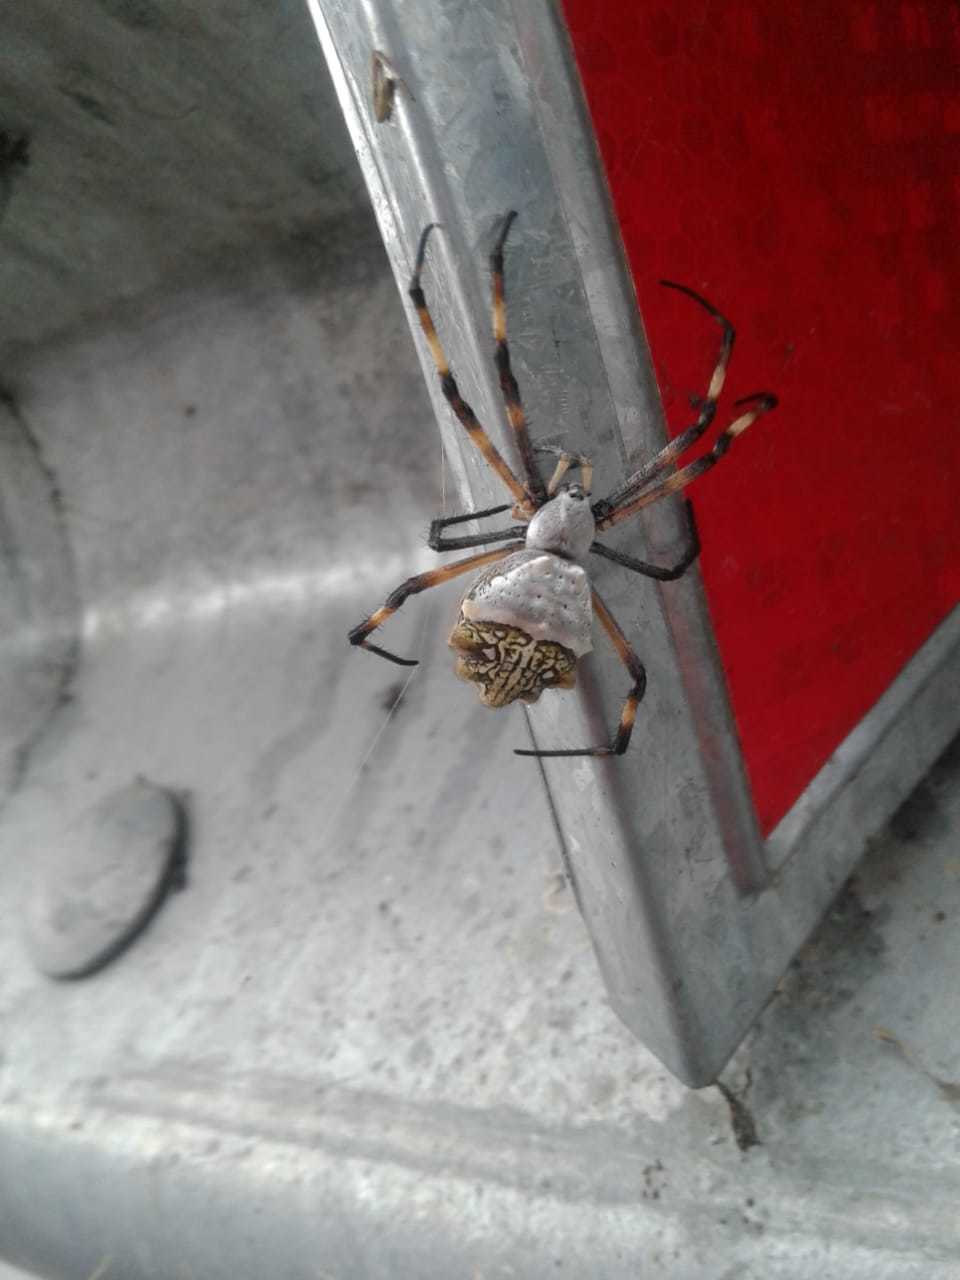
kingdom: Animalia
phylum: Arthropoda
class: Arachnida
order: Araneae
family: Araneidae
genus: Argiope
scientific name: Argiope argentata
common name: Orb weavers
